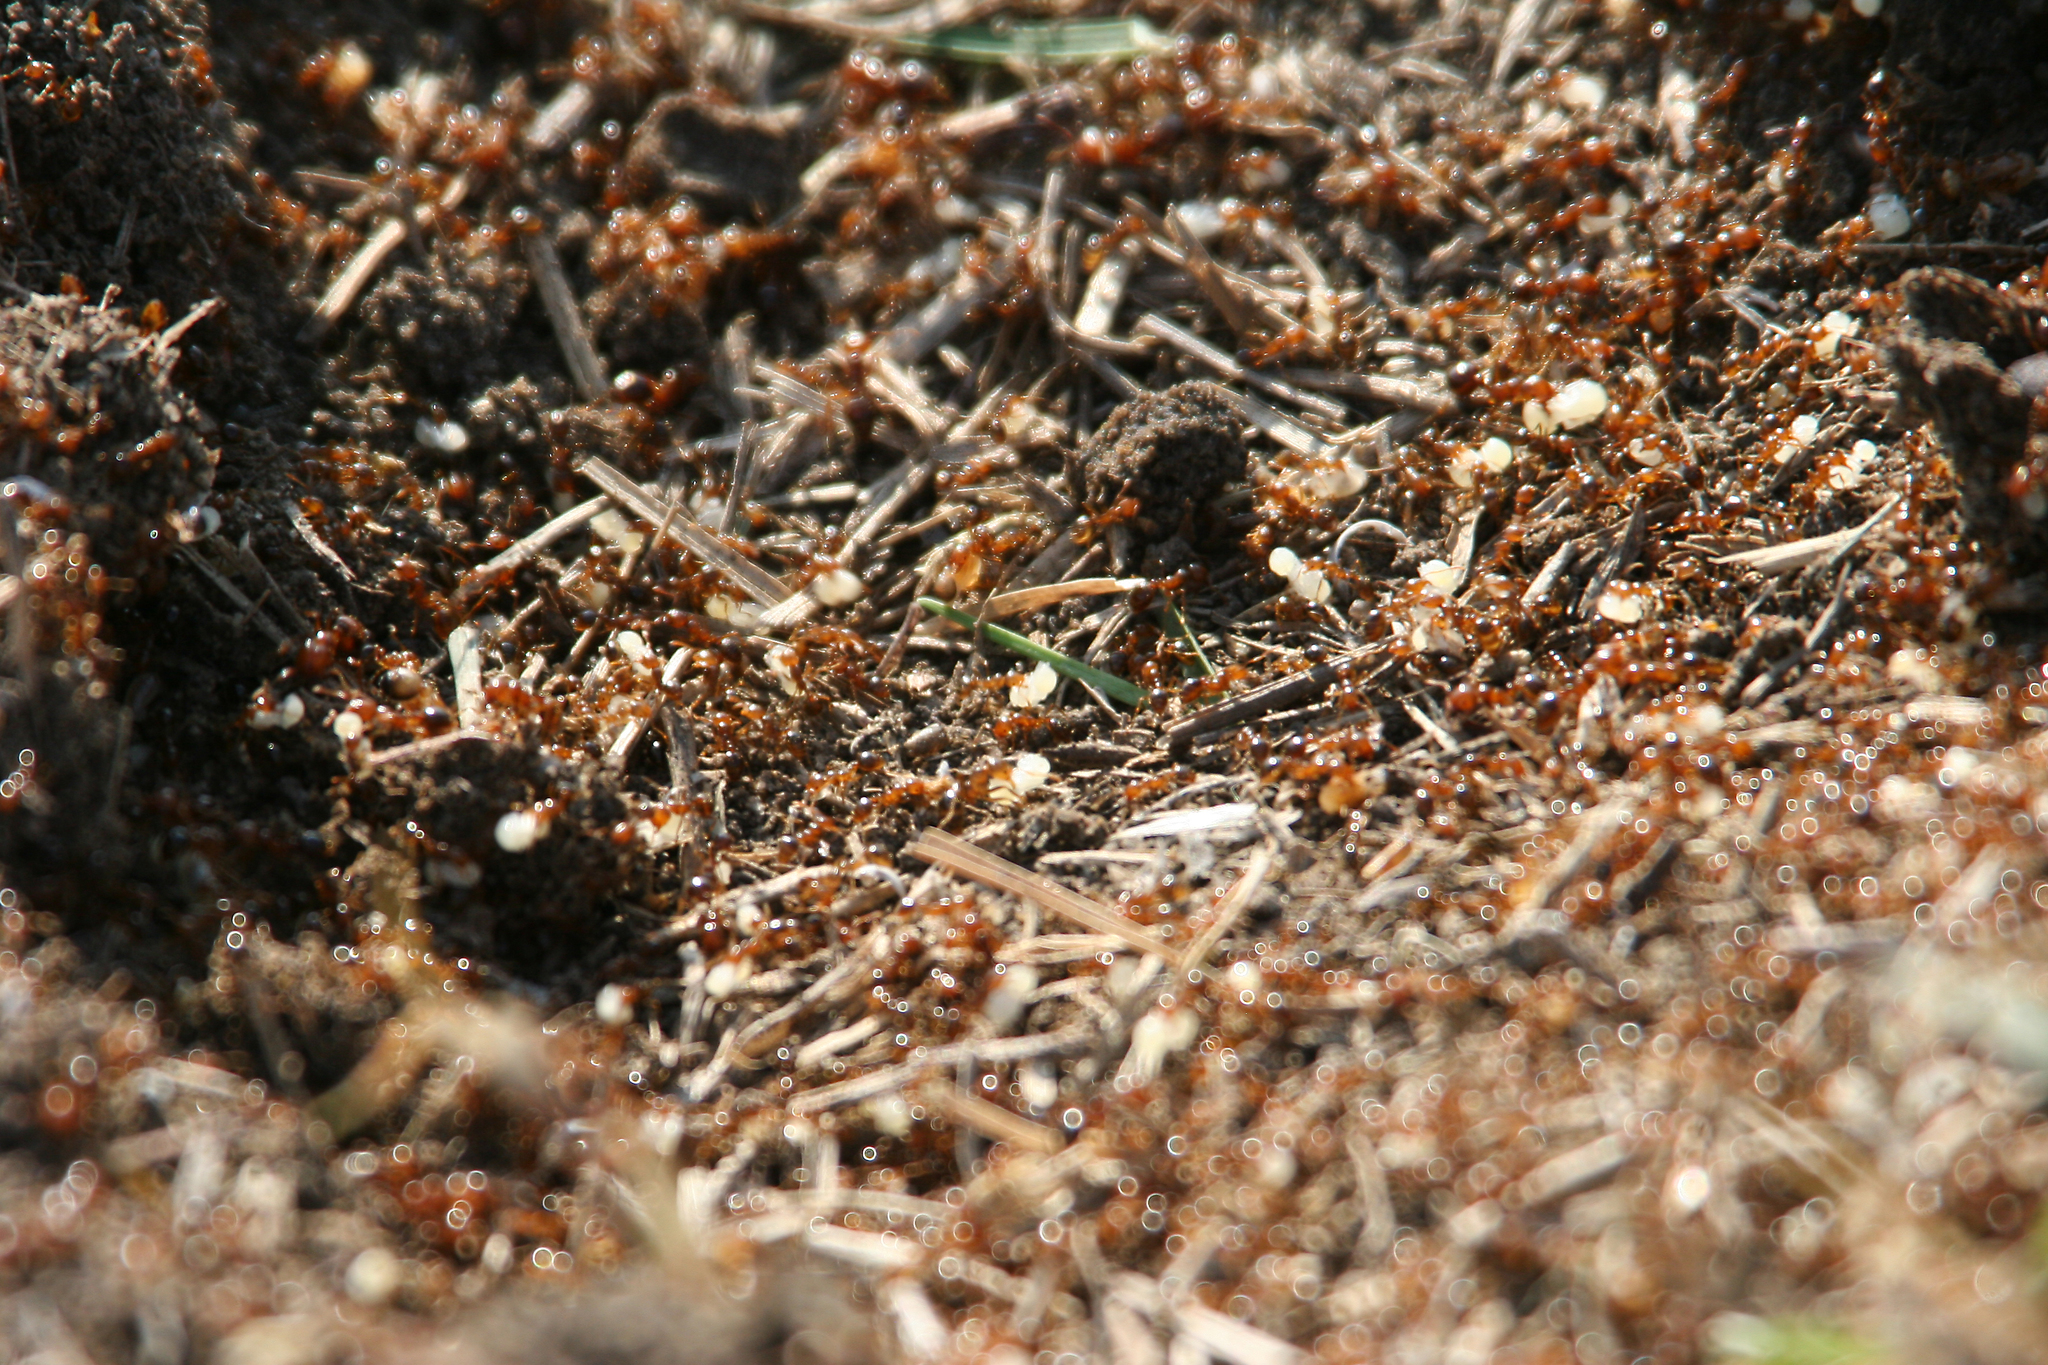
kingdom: Animalia
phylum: Arthropoda
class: Insecta
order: Hymenoptera
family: Formicidae
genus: Solenopsis
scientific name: Solenopsis invicta
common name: Red imported fire ant
